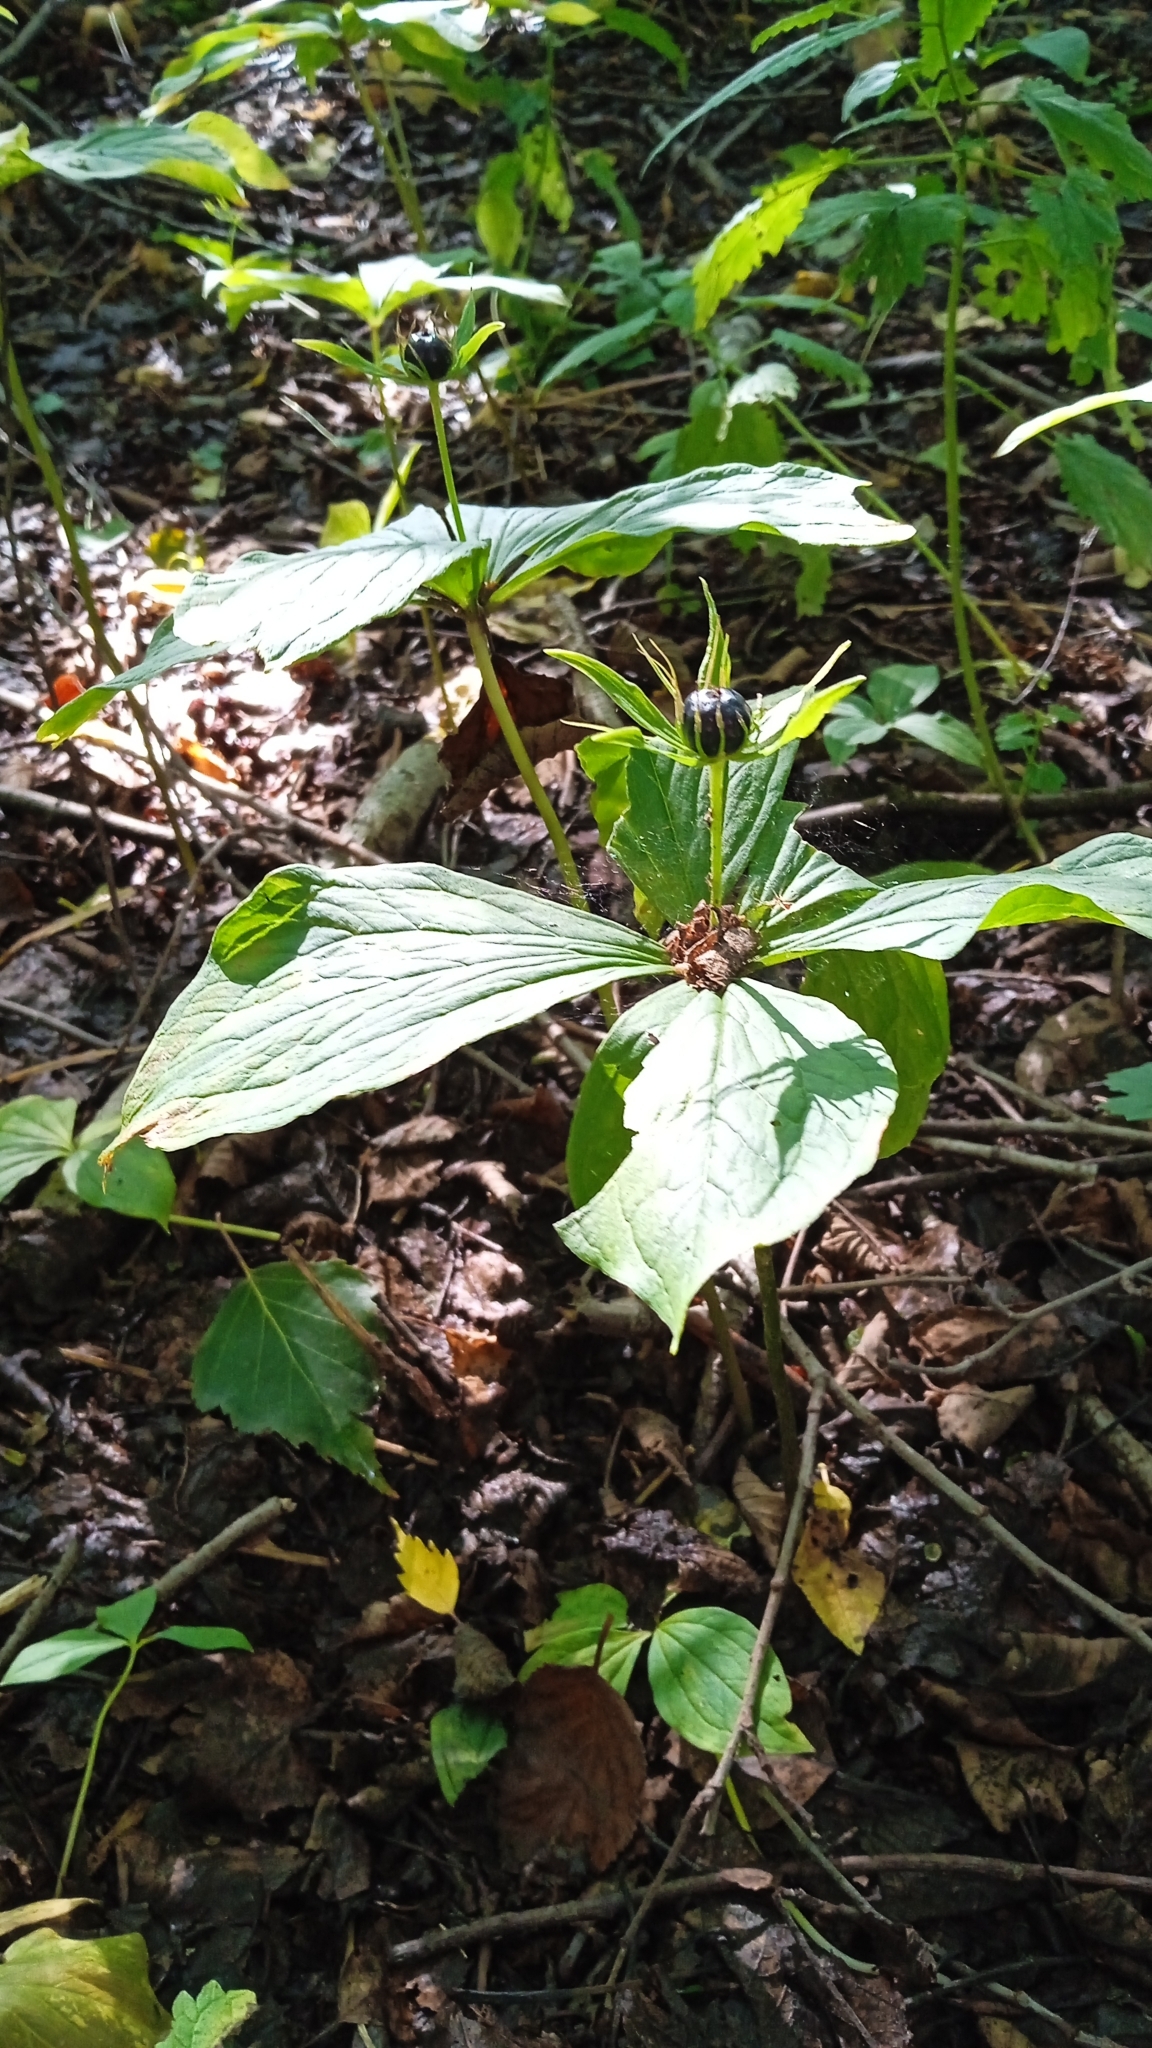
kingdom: Plantae
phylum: Tracheophyta
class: Liliopsida
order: Liliales
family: Melanthiaceae
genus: Paris
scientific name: Paris quadrifolia
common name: Herb-paris
